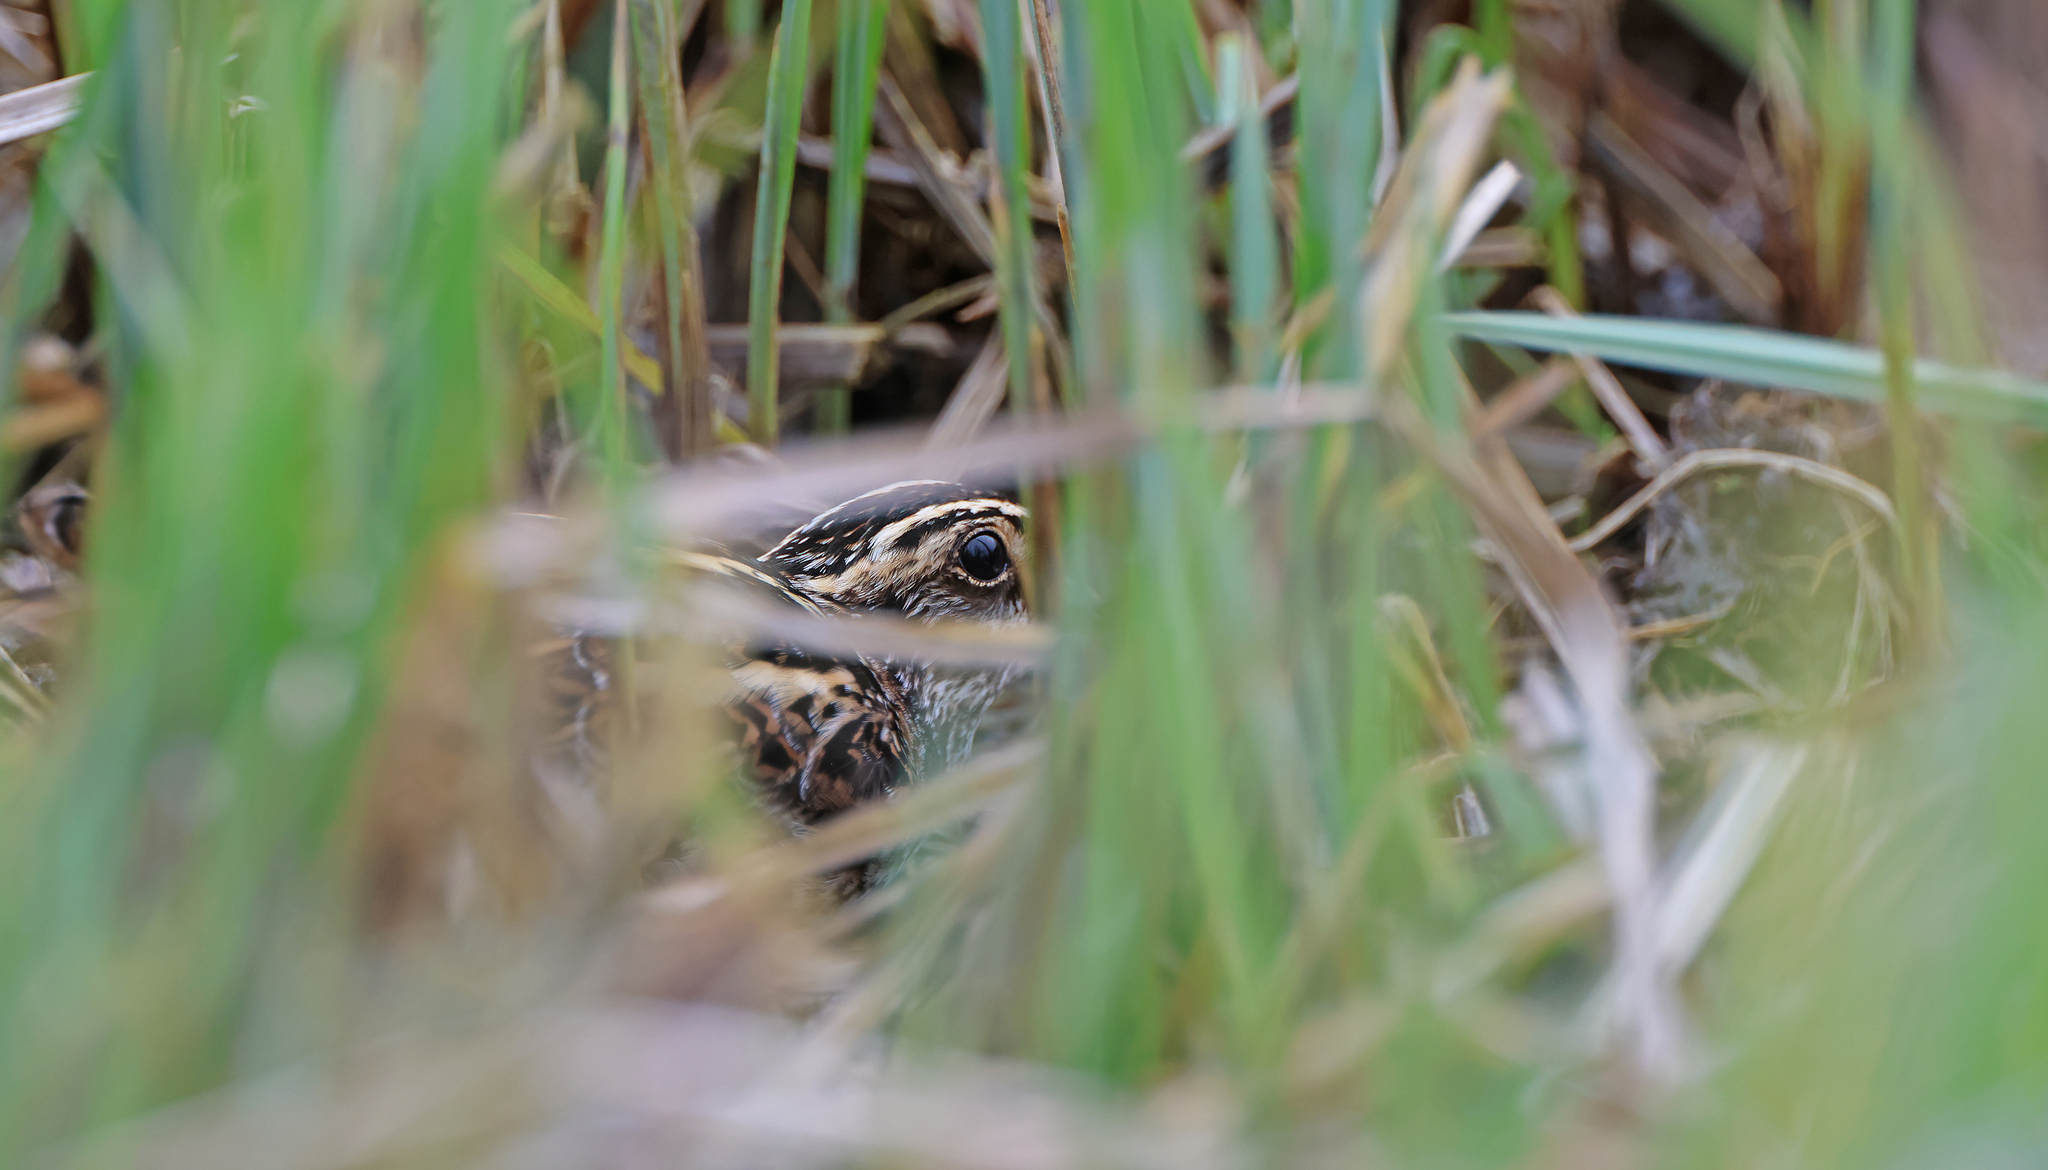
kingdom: Animalia
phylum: Chordata
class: Aves
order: Charadriiformes
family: Scolopacidae
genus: Lymnocryptes
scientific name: Lymnocryptes minimus
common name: Jack snipe
